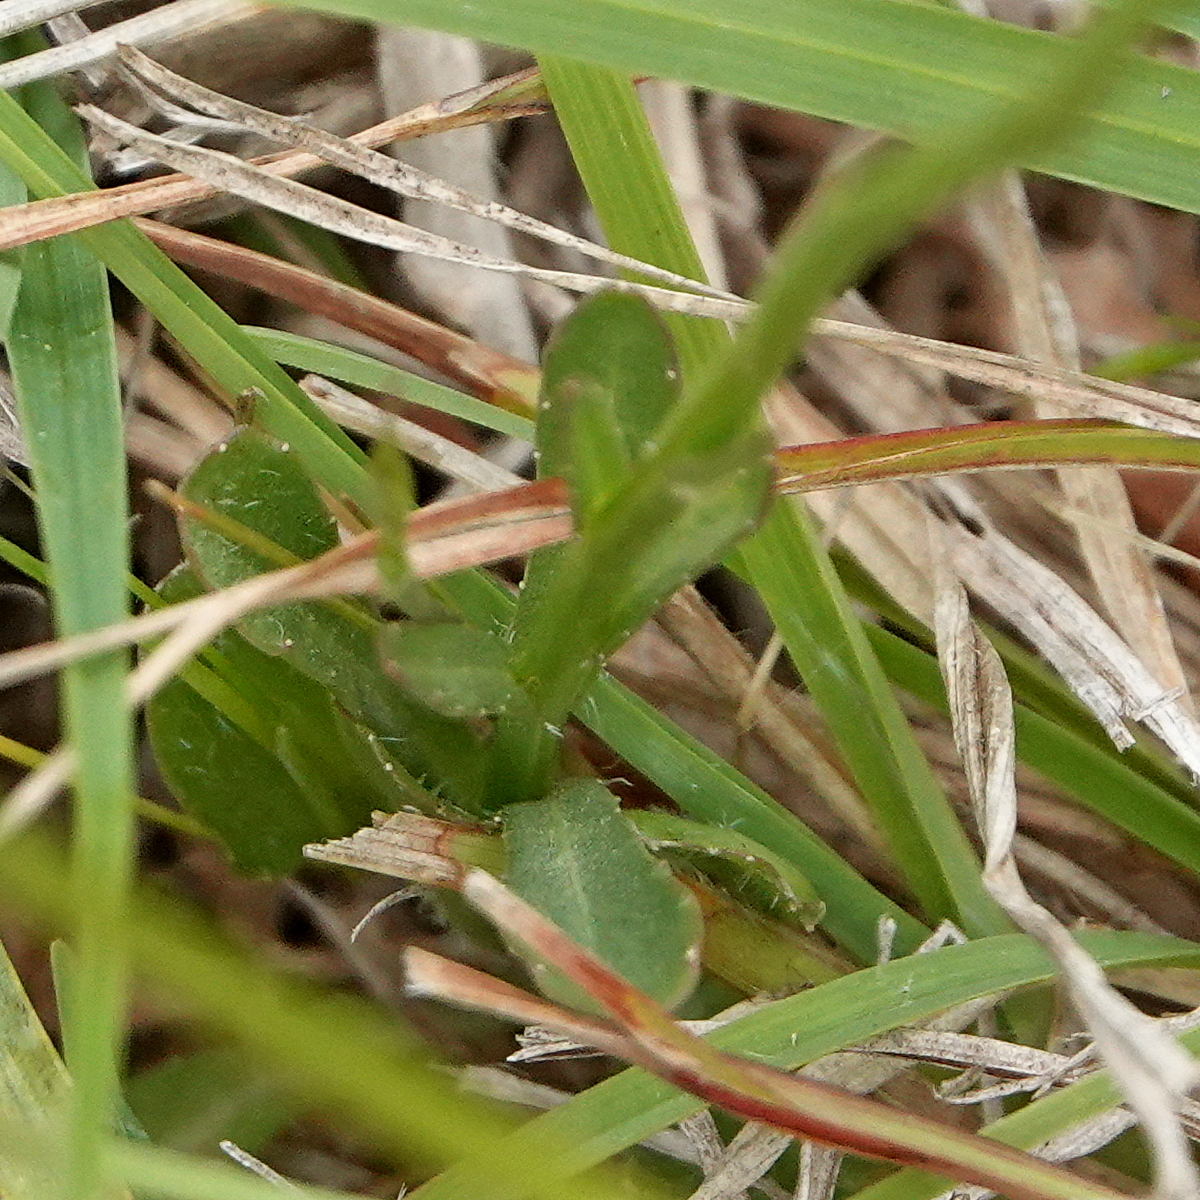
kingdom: Plantae
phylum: Tracheophyta
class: Magnoliopsida
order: Asterales
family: Campanulaceae
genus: Wahlenbergia
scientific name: Wahlenbergia capillaris
